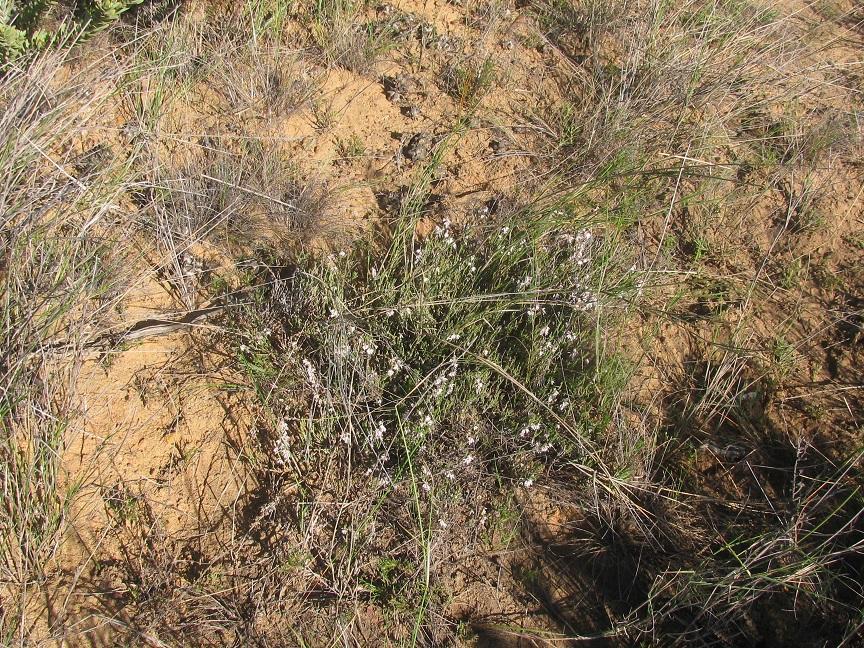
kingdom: Plantae
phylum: Tracheophyta
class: Magnoliopsida
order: Ericales
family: Ericaceae
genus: Erica
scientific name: Erica glabra
